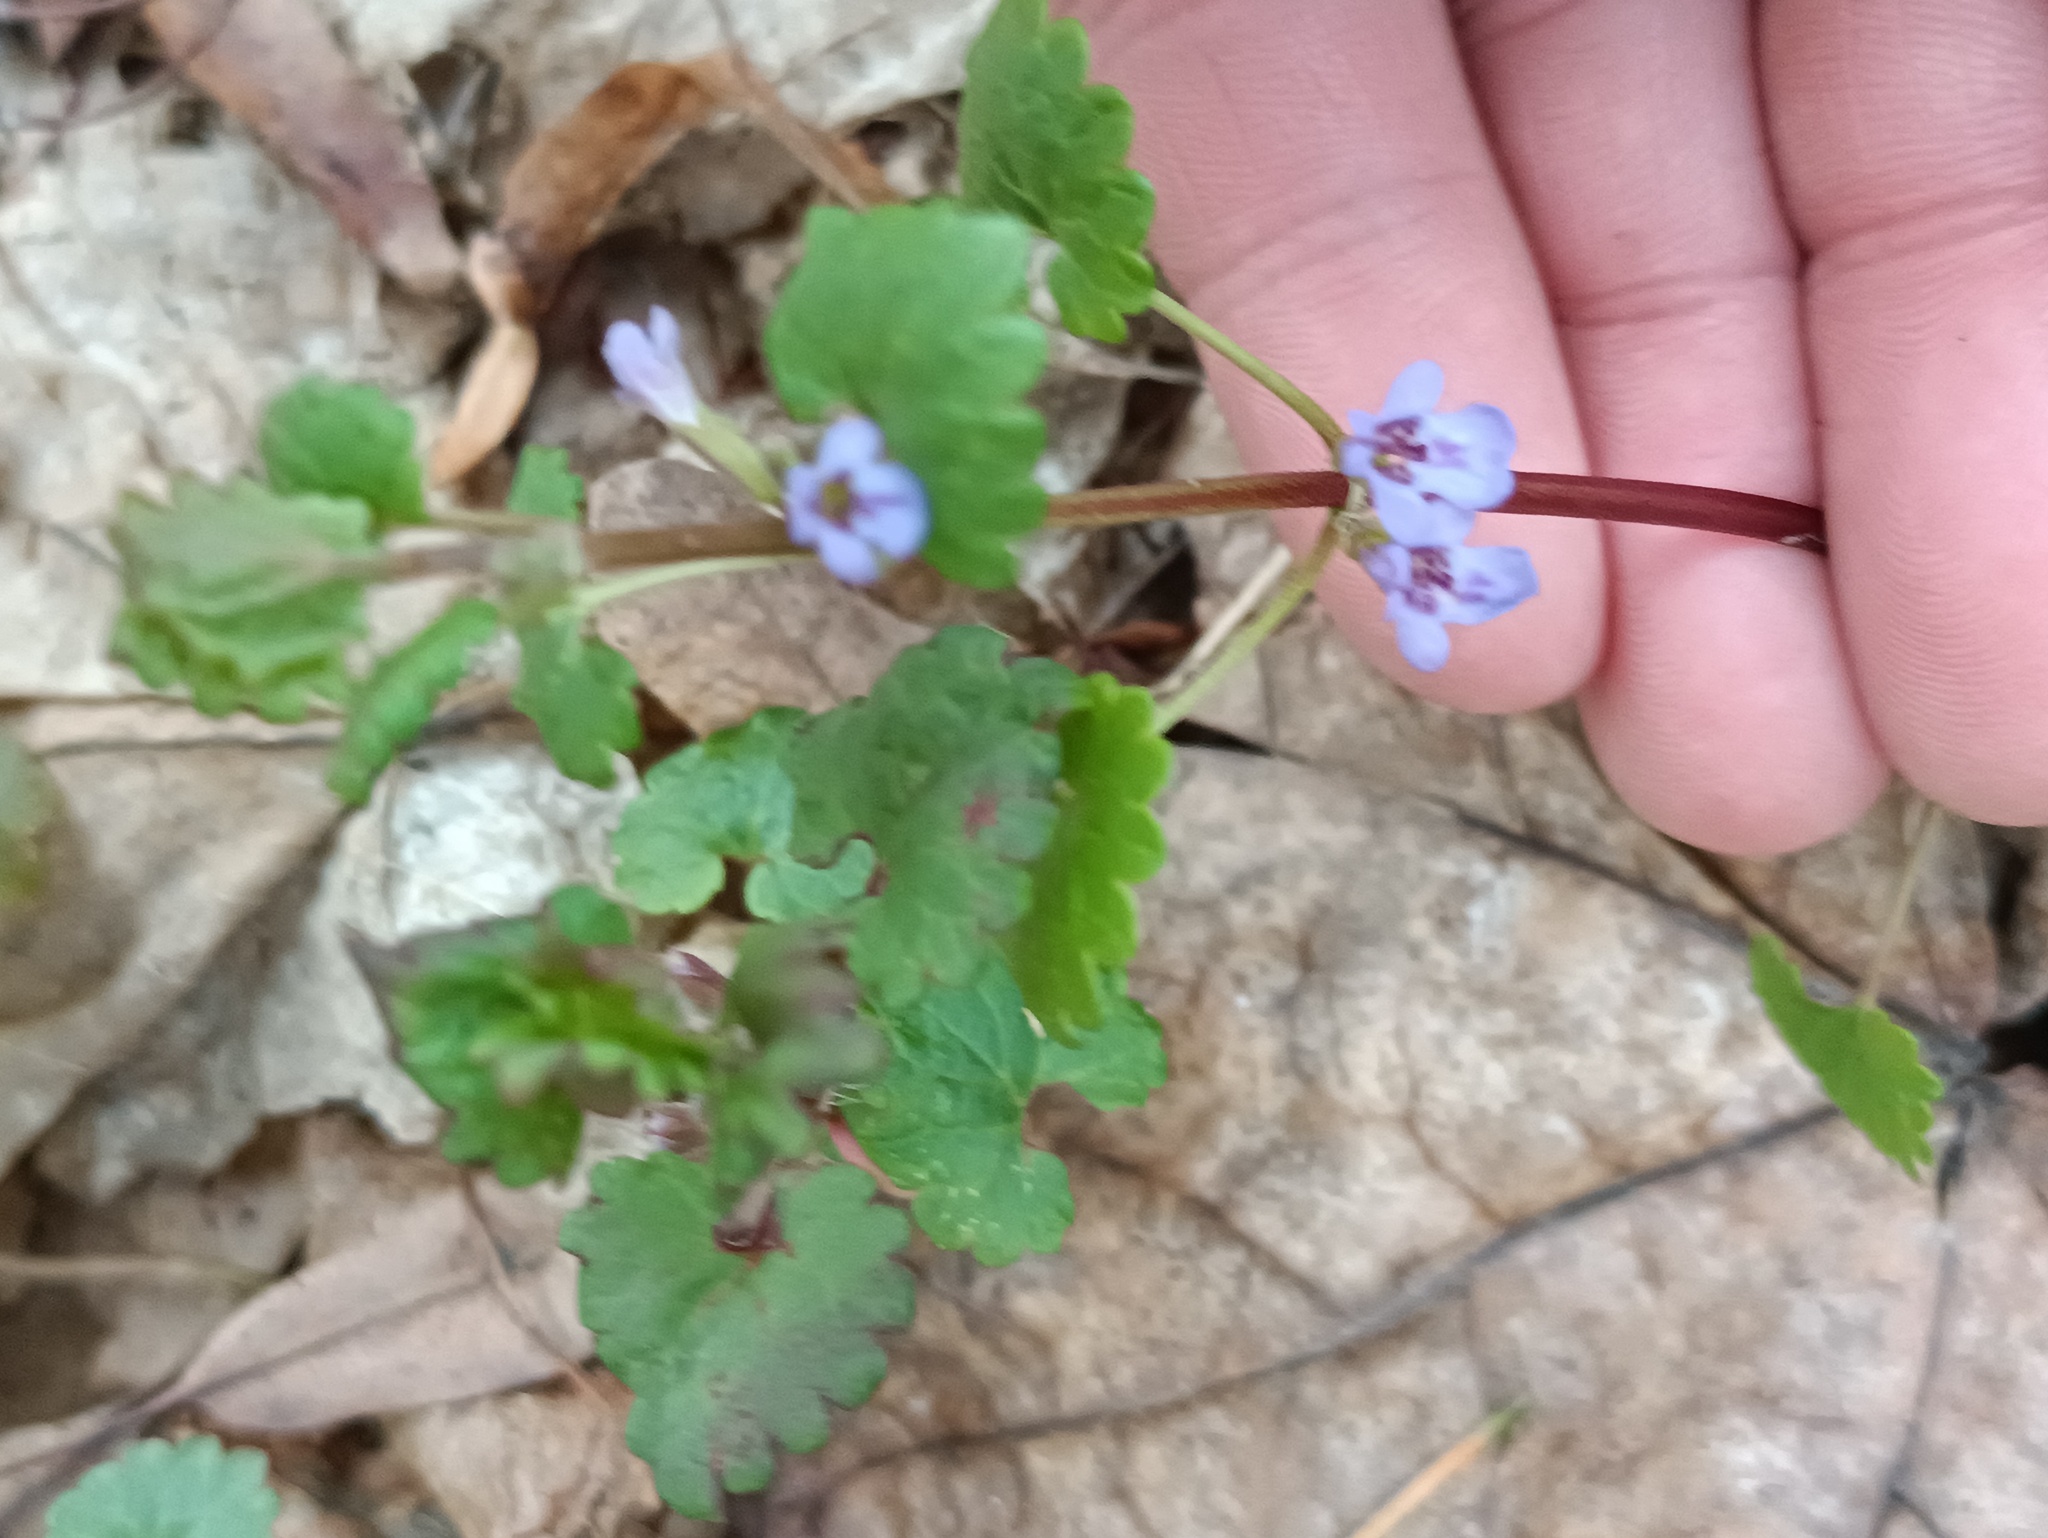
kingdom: Plantae
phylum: Tracheophyta
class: Magnoliopsida
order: Lamiales
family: Lamiaceae
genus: Glechoma
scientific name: Glechoma hederacea
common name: Ground ivy
